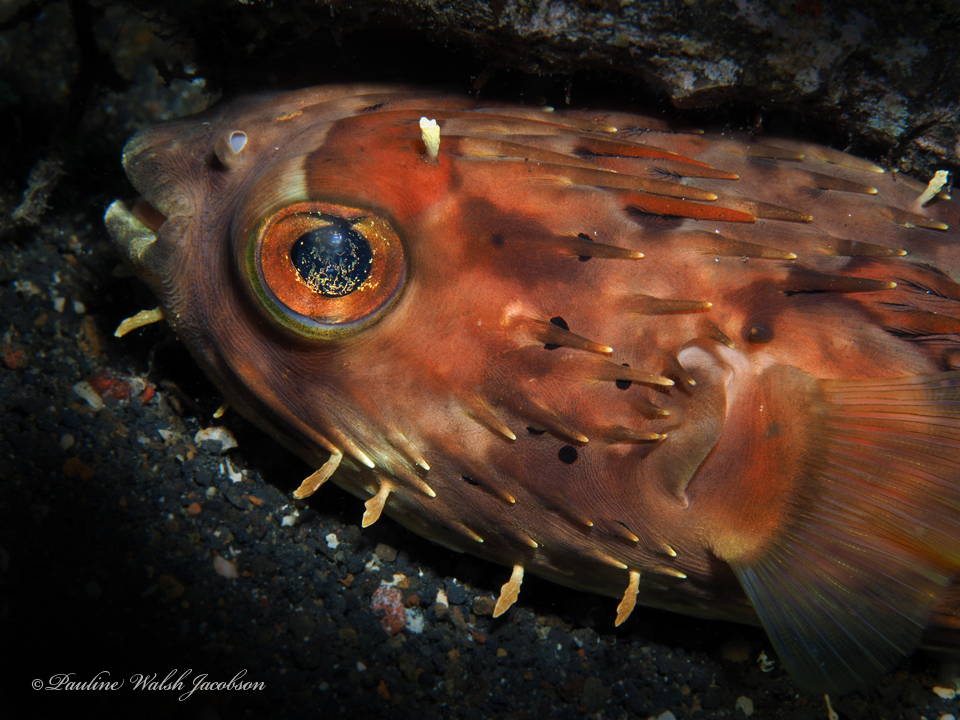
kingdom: Animalia
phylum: Chordata
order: Tetraodontiformes
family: Diodontidae
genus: Diodon
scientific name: Diodon holocanthus
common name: Balloonfish
